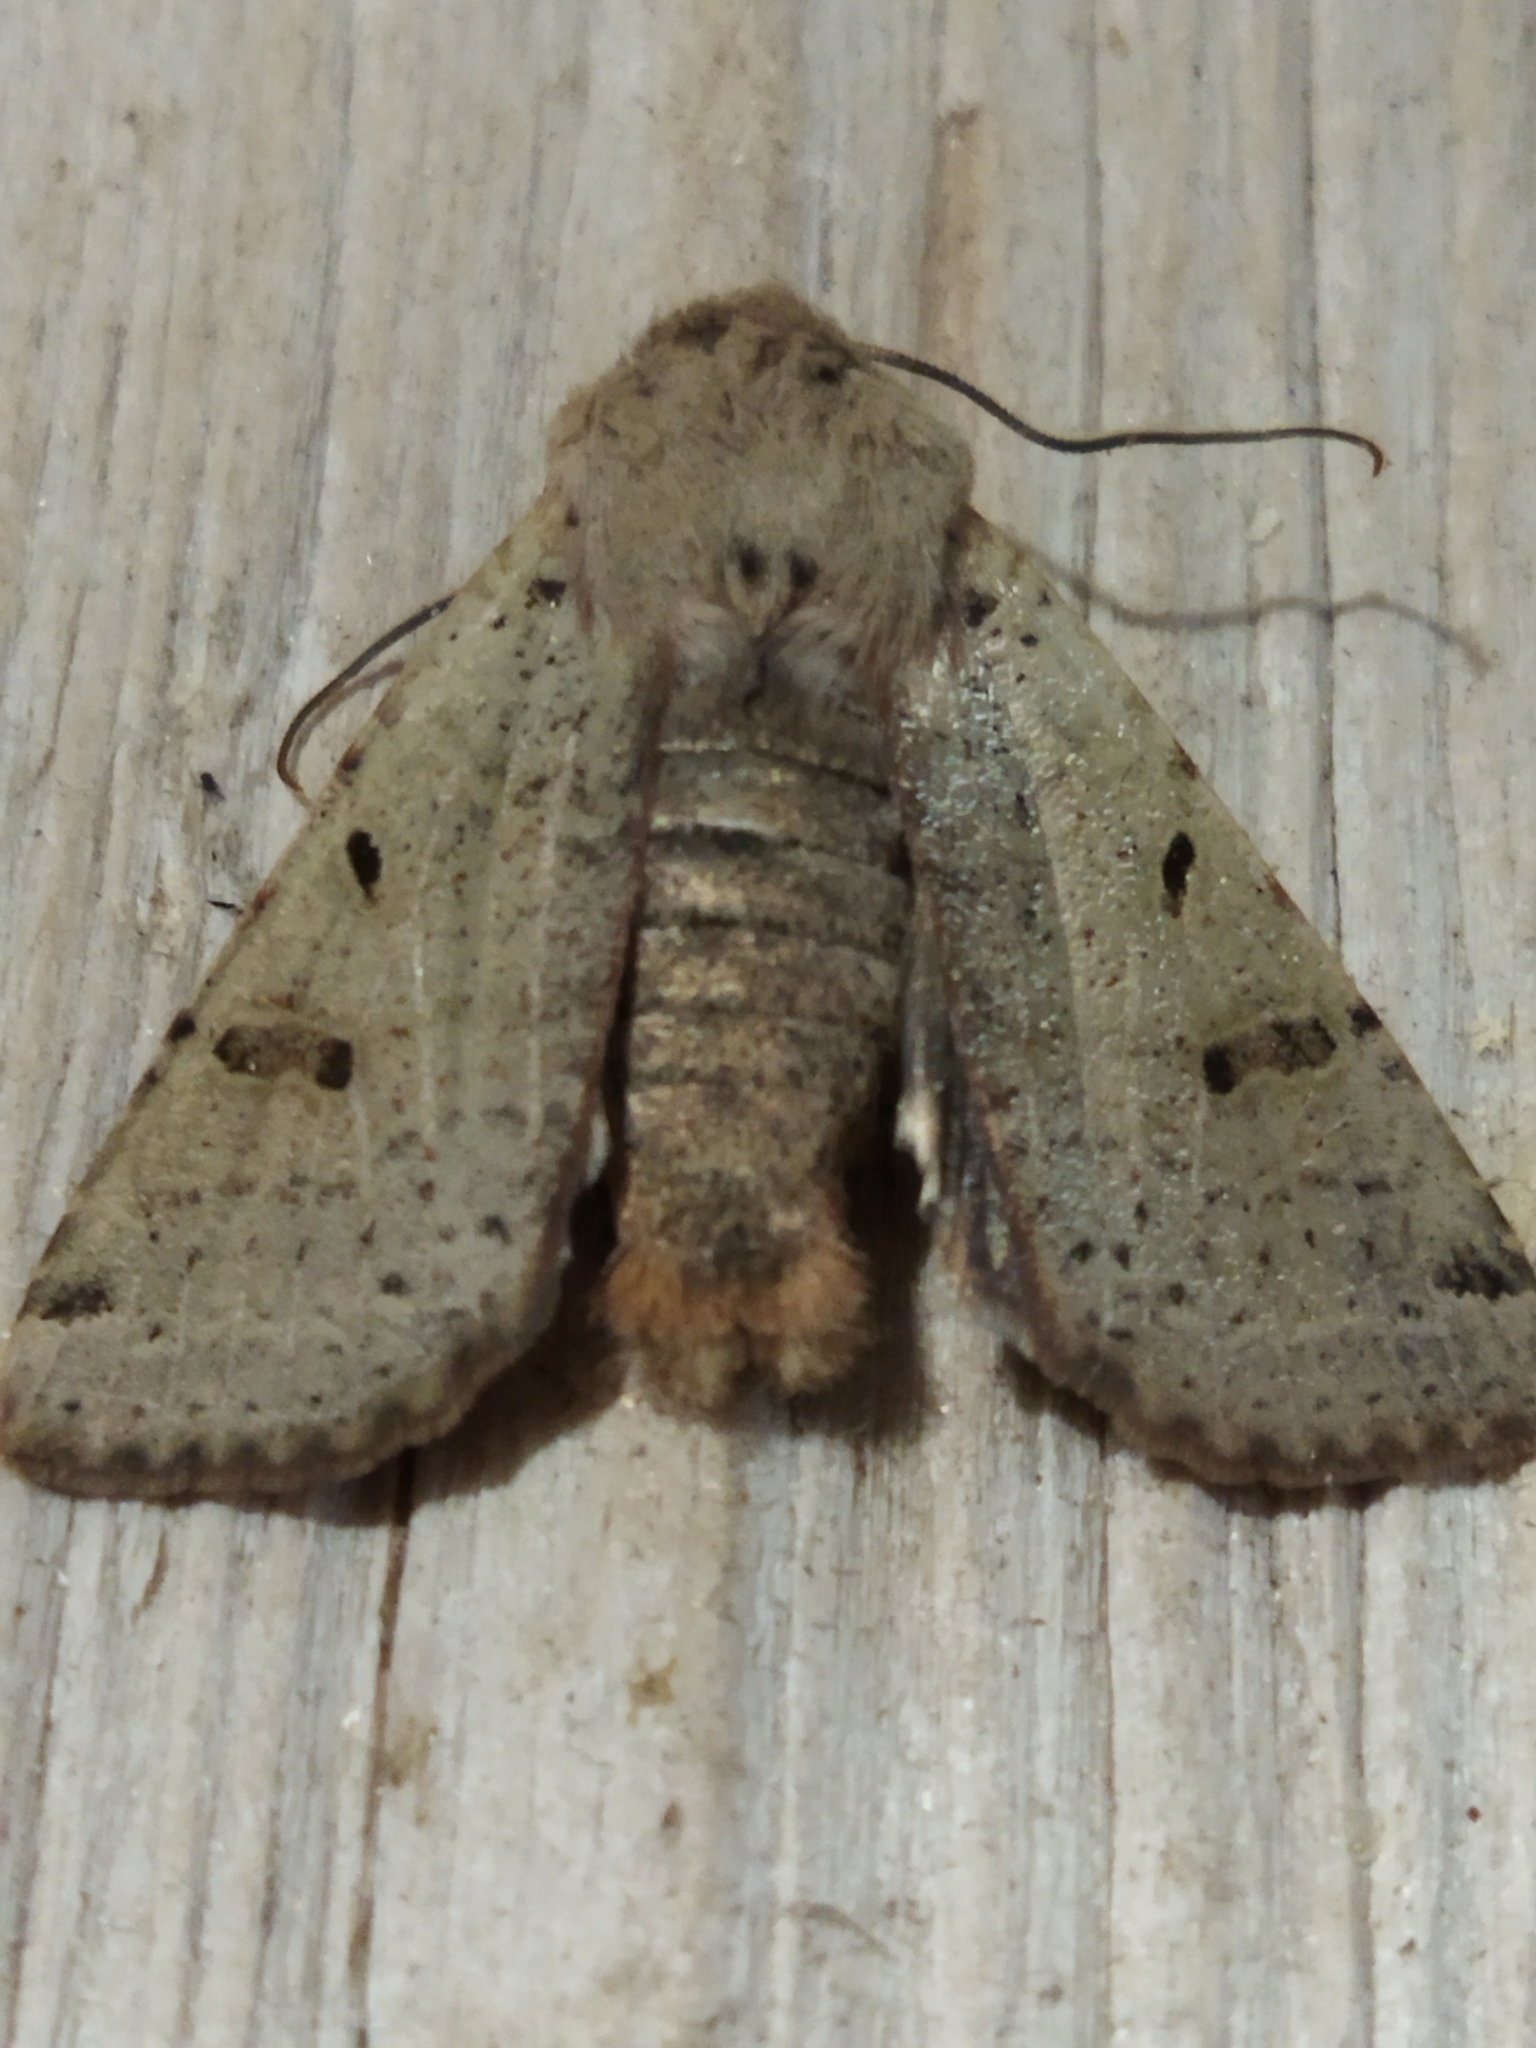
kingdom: Animalia
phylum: Arthropoda
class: Insecta
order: Lepidoptera
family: Noctuidae
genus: Agrochola
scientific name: Agrochola lychnidis
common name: Beaded chestnut
